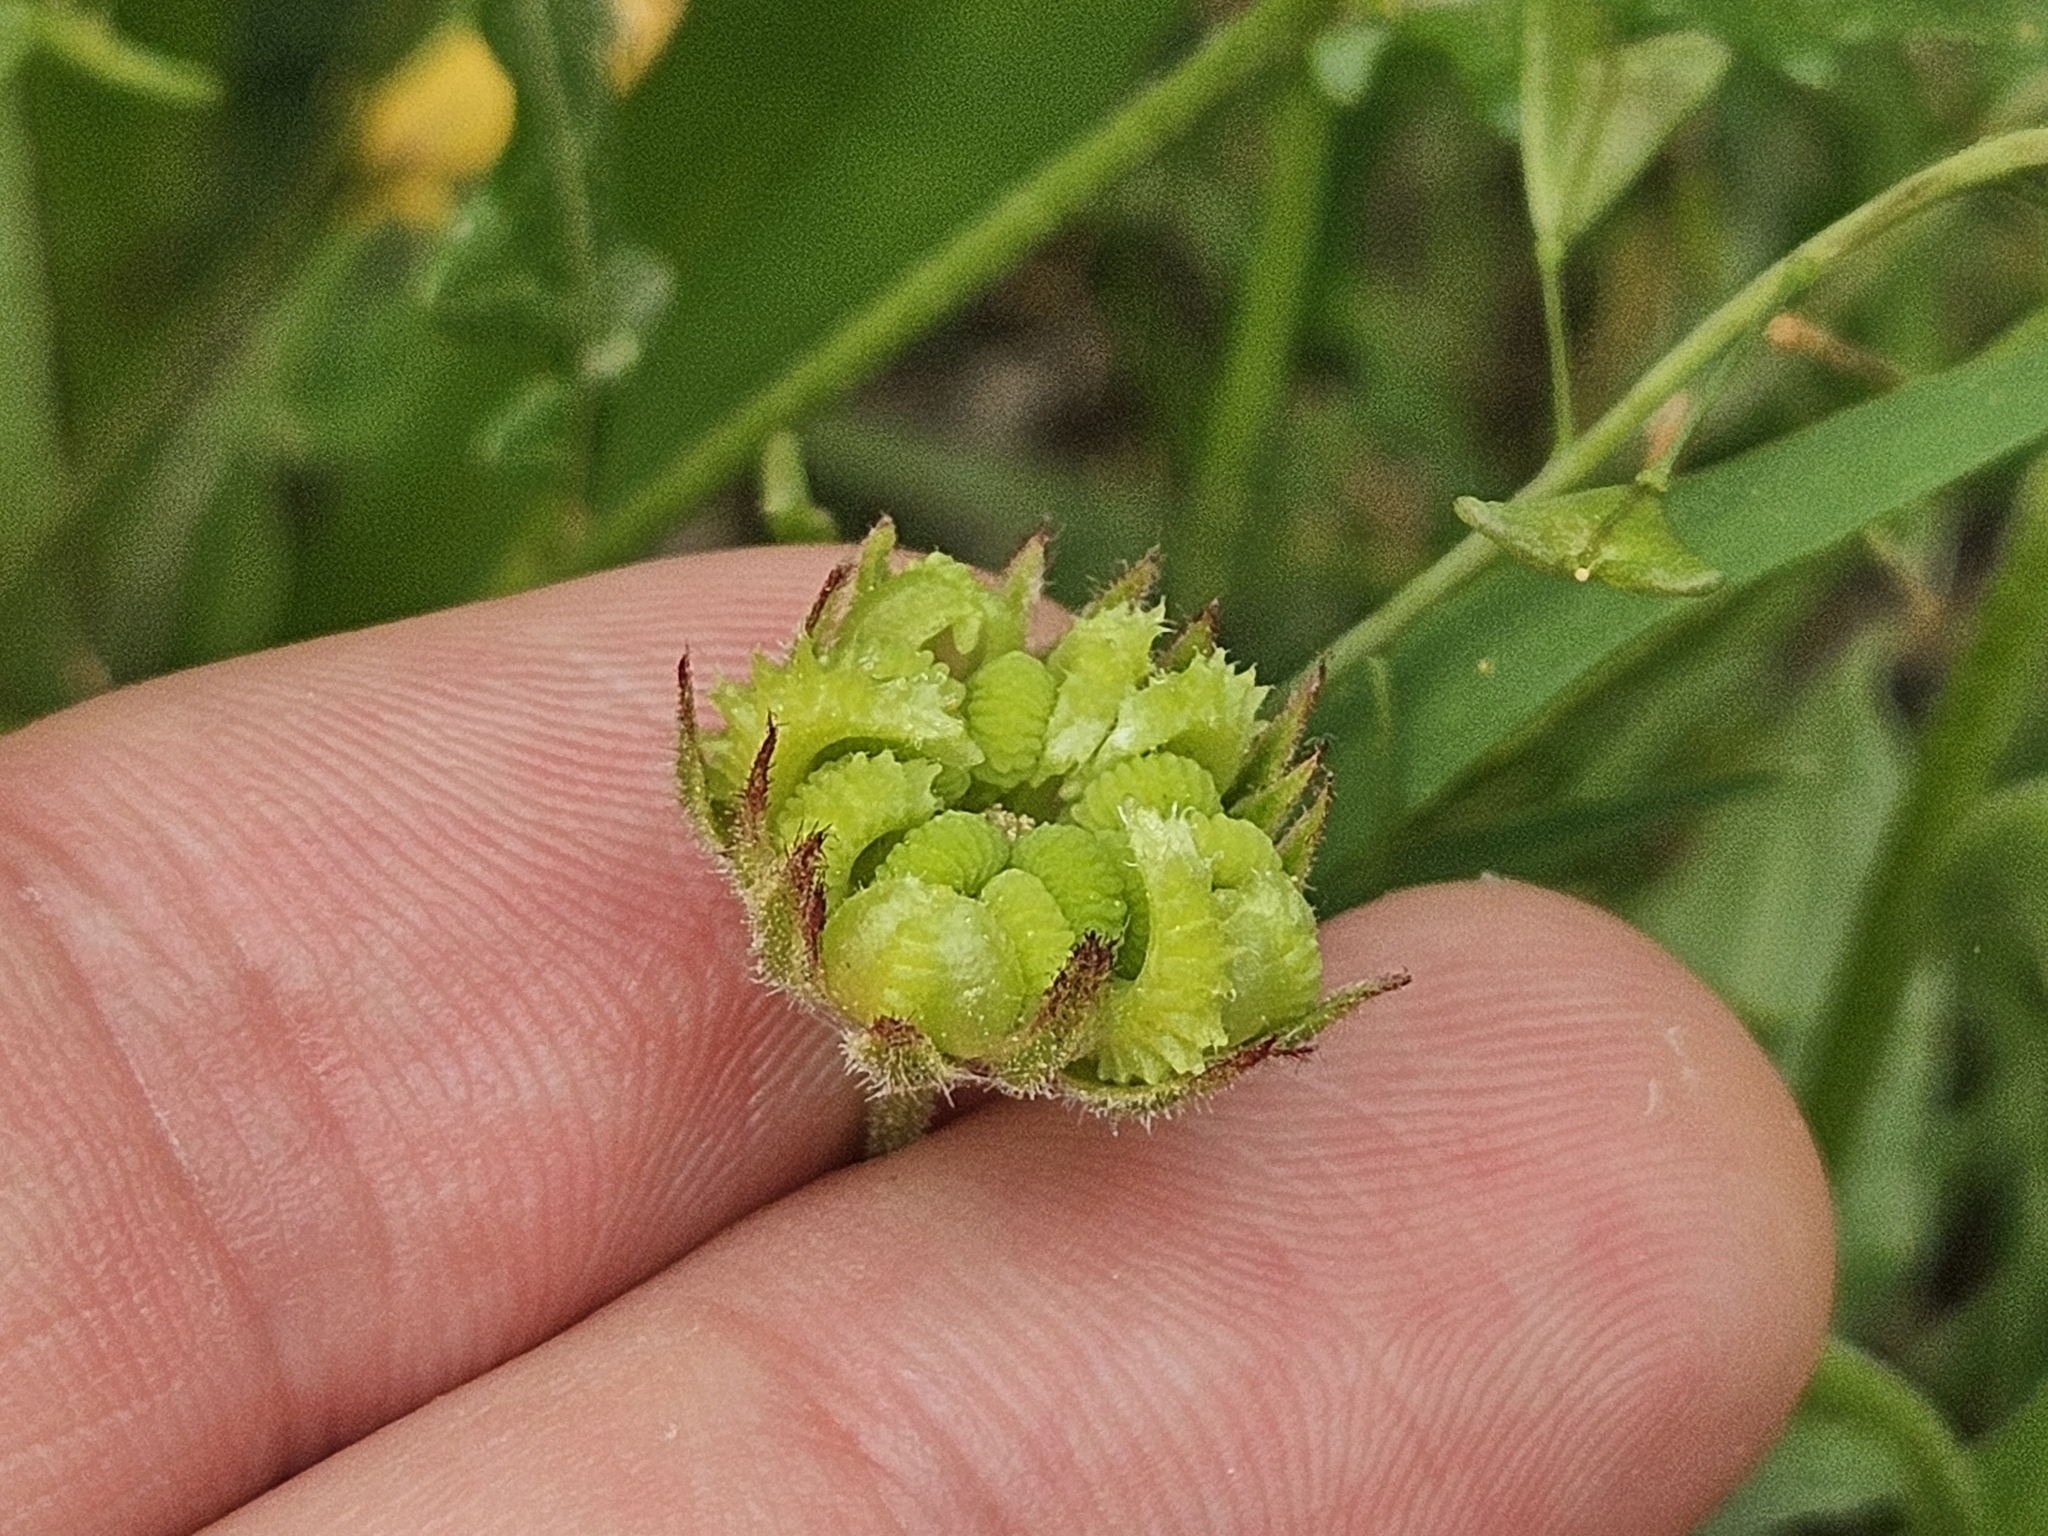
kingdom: Plantae
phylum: Tracheophyta
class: Magnoliopsida
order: Asterales
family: Asteraceae
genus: Calendula
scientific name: Calendula arvensis
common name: Field marigold
